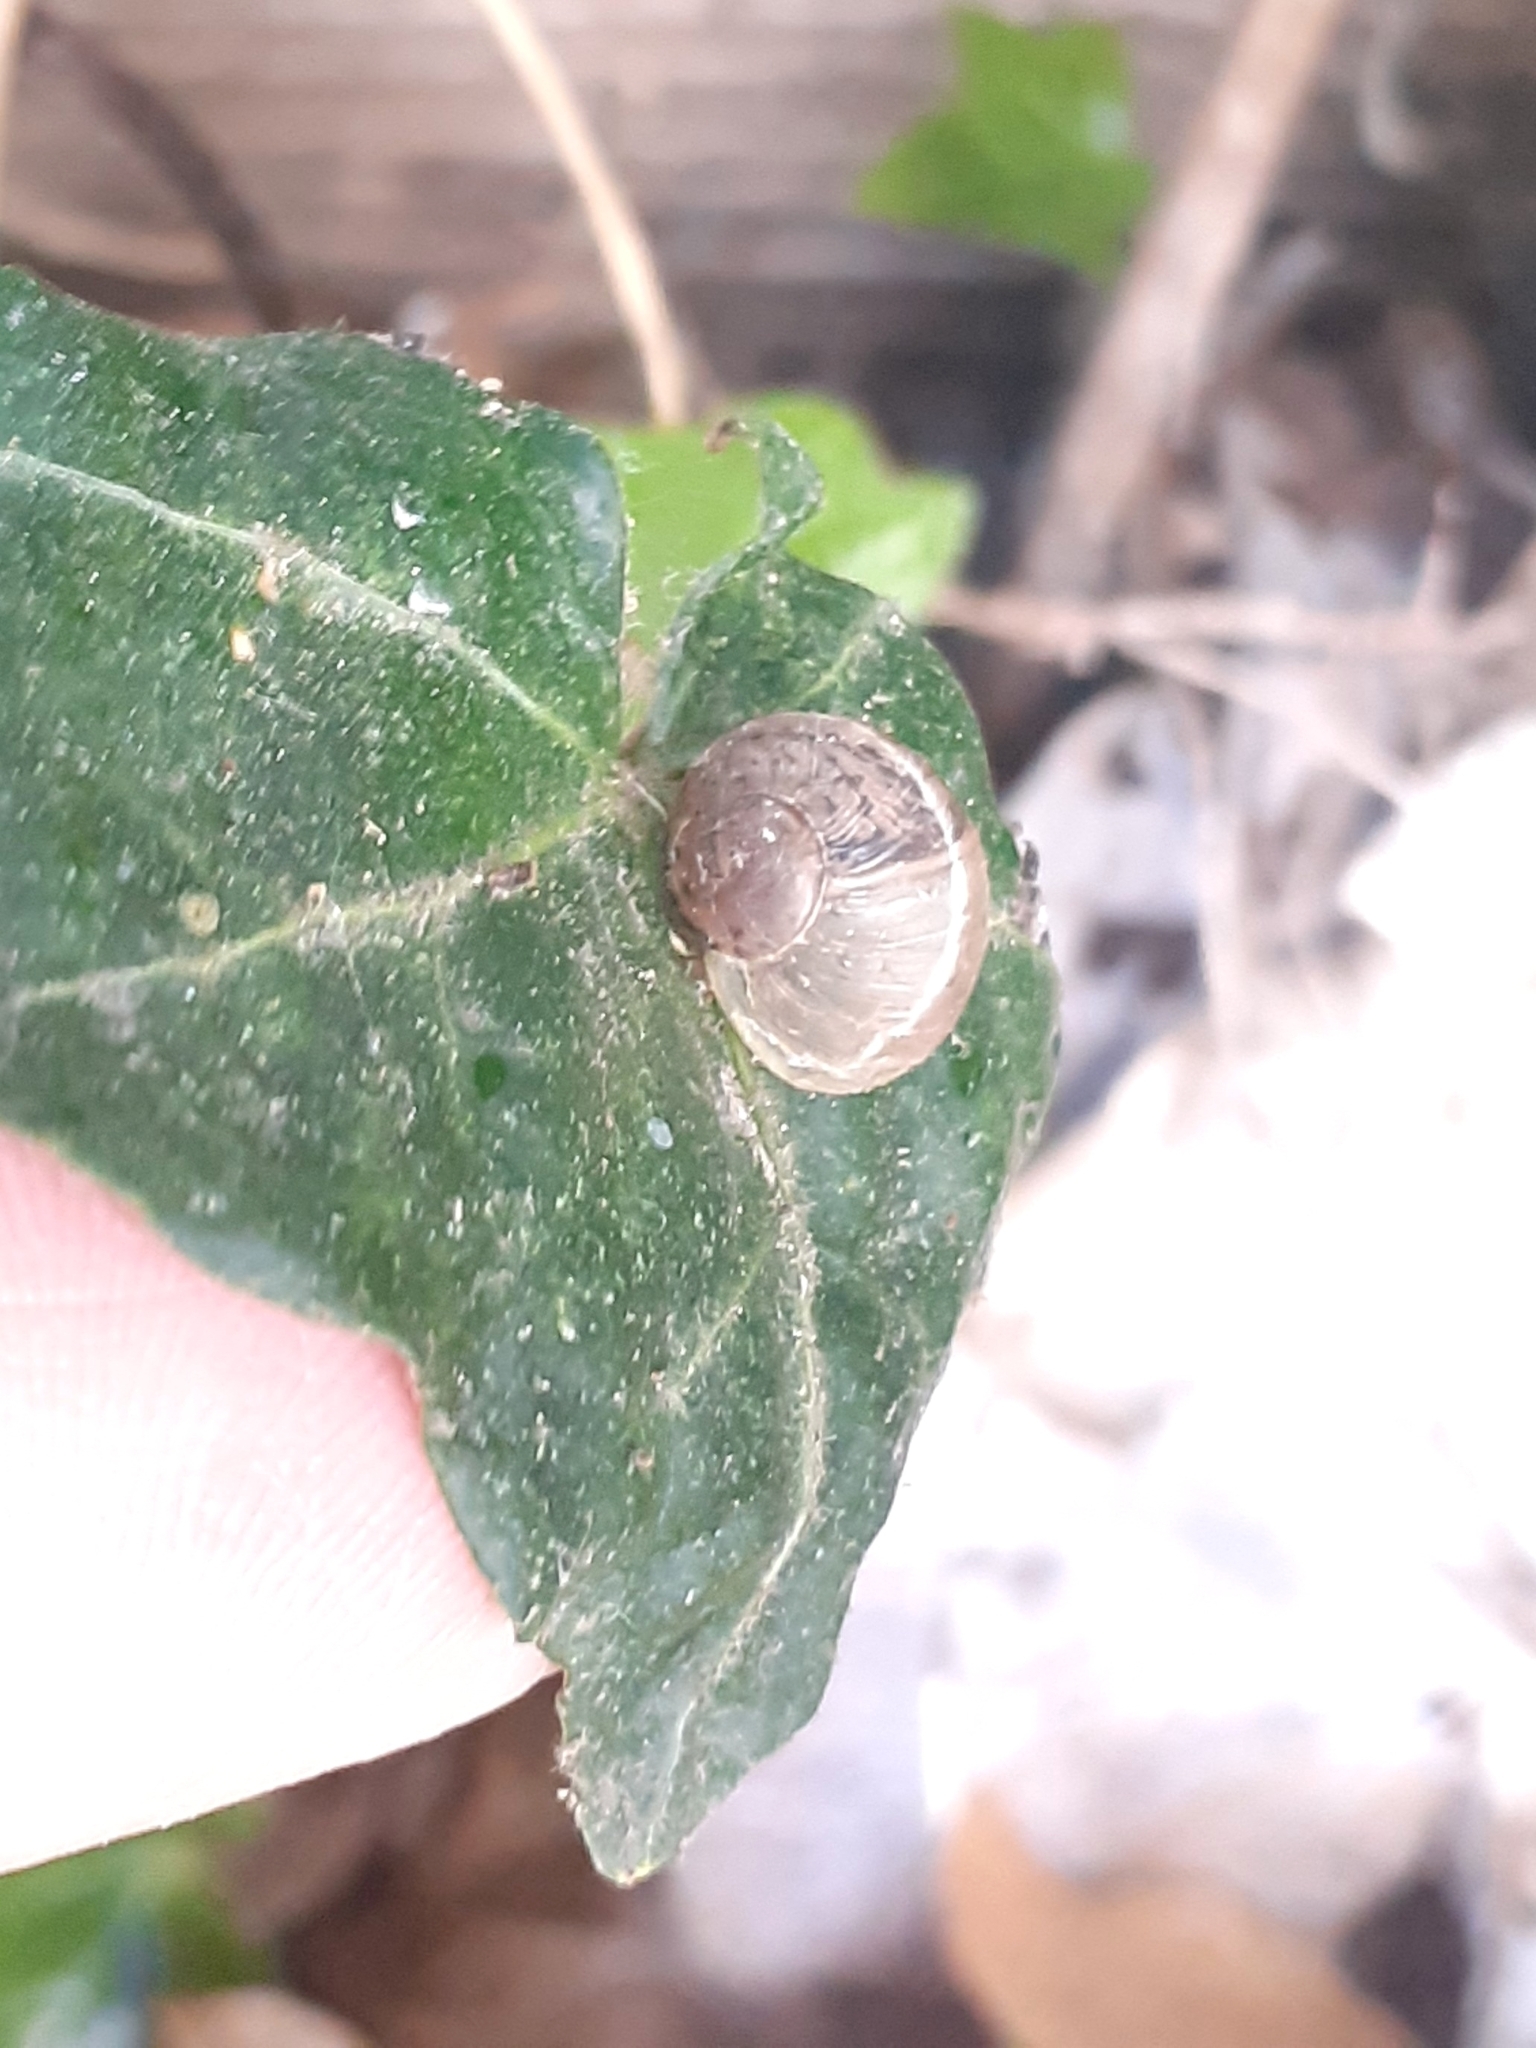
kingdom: Animalia
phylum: Mollusca
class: Gastropoda
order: Stylommatophora
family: Helicidae
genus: Cornu
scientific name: Cornu aspersum
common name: Brown garden snail
